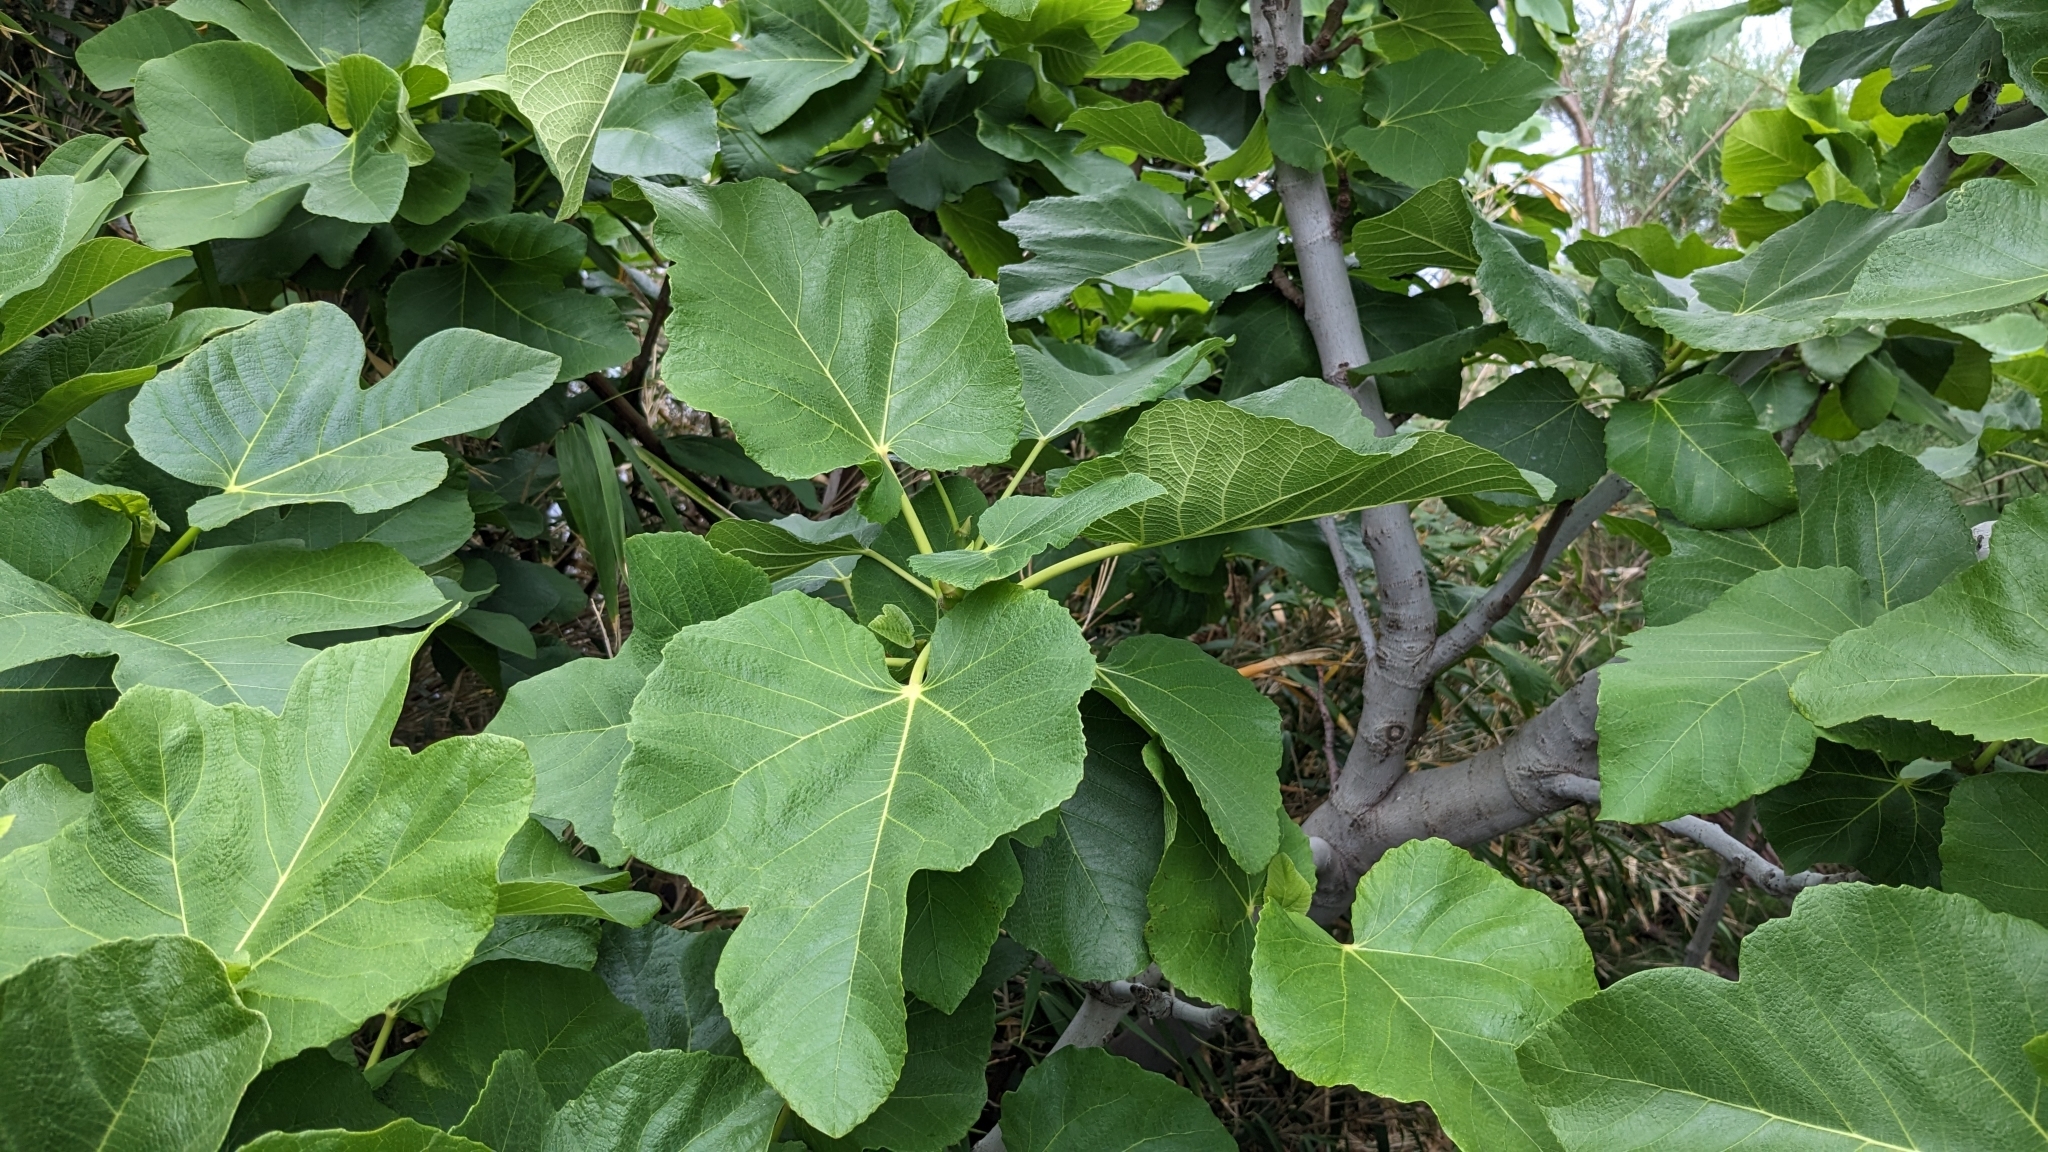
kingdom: Plantae
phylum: Tracheophyta
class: Magnoliopsida
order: Rosales
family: Moraceae
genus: Ficus
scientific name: Ficus carica
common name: Fig
